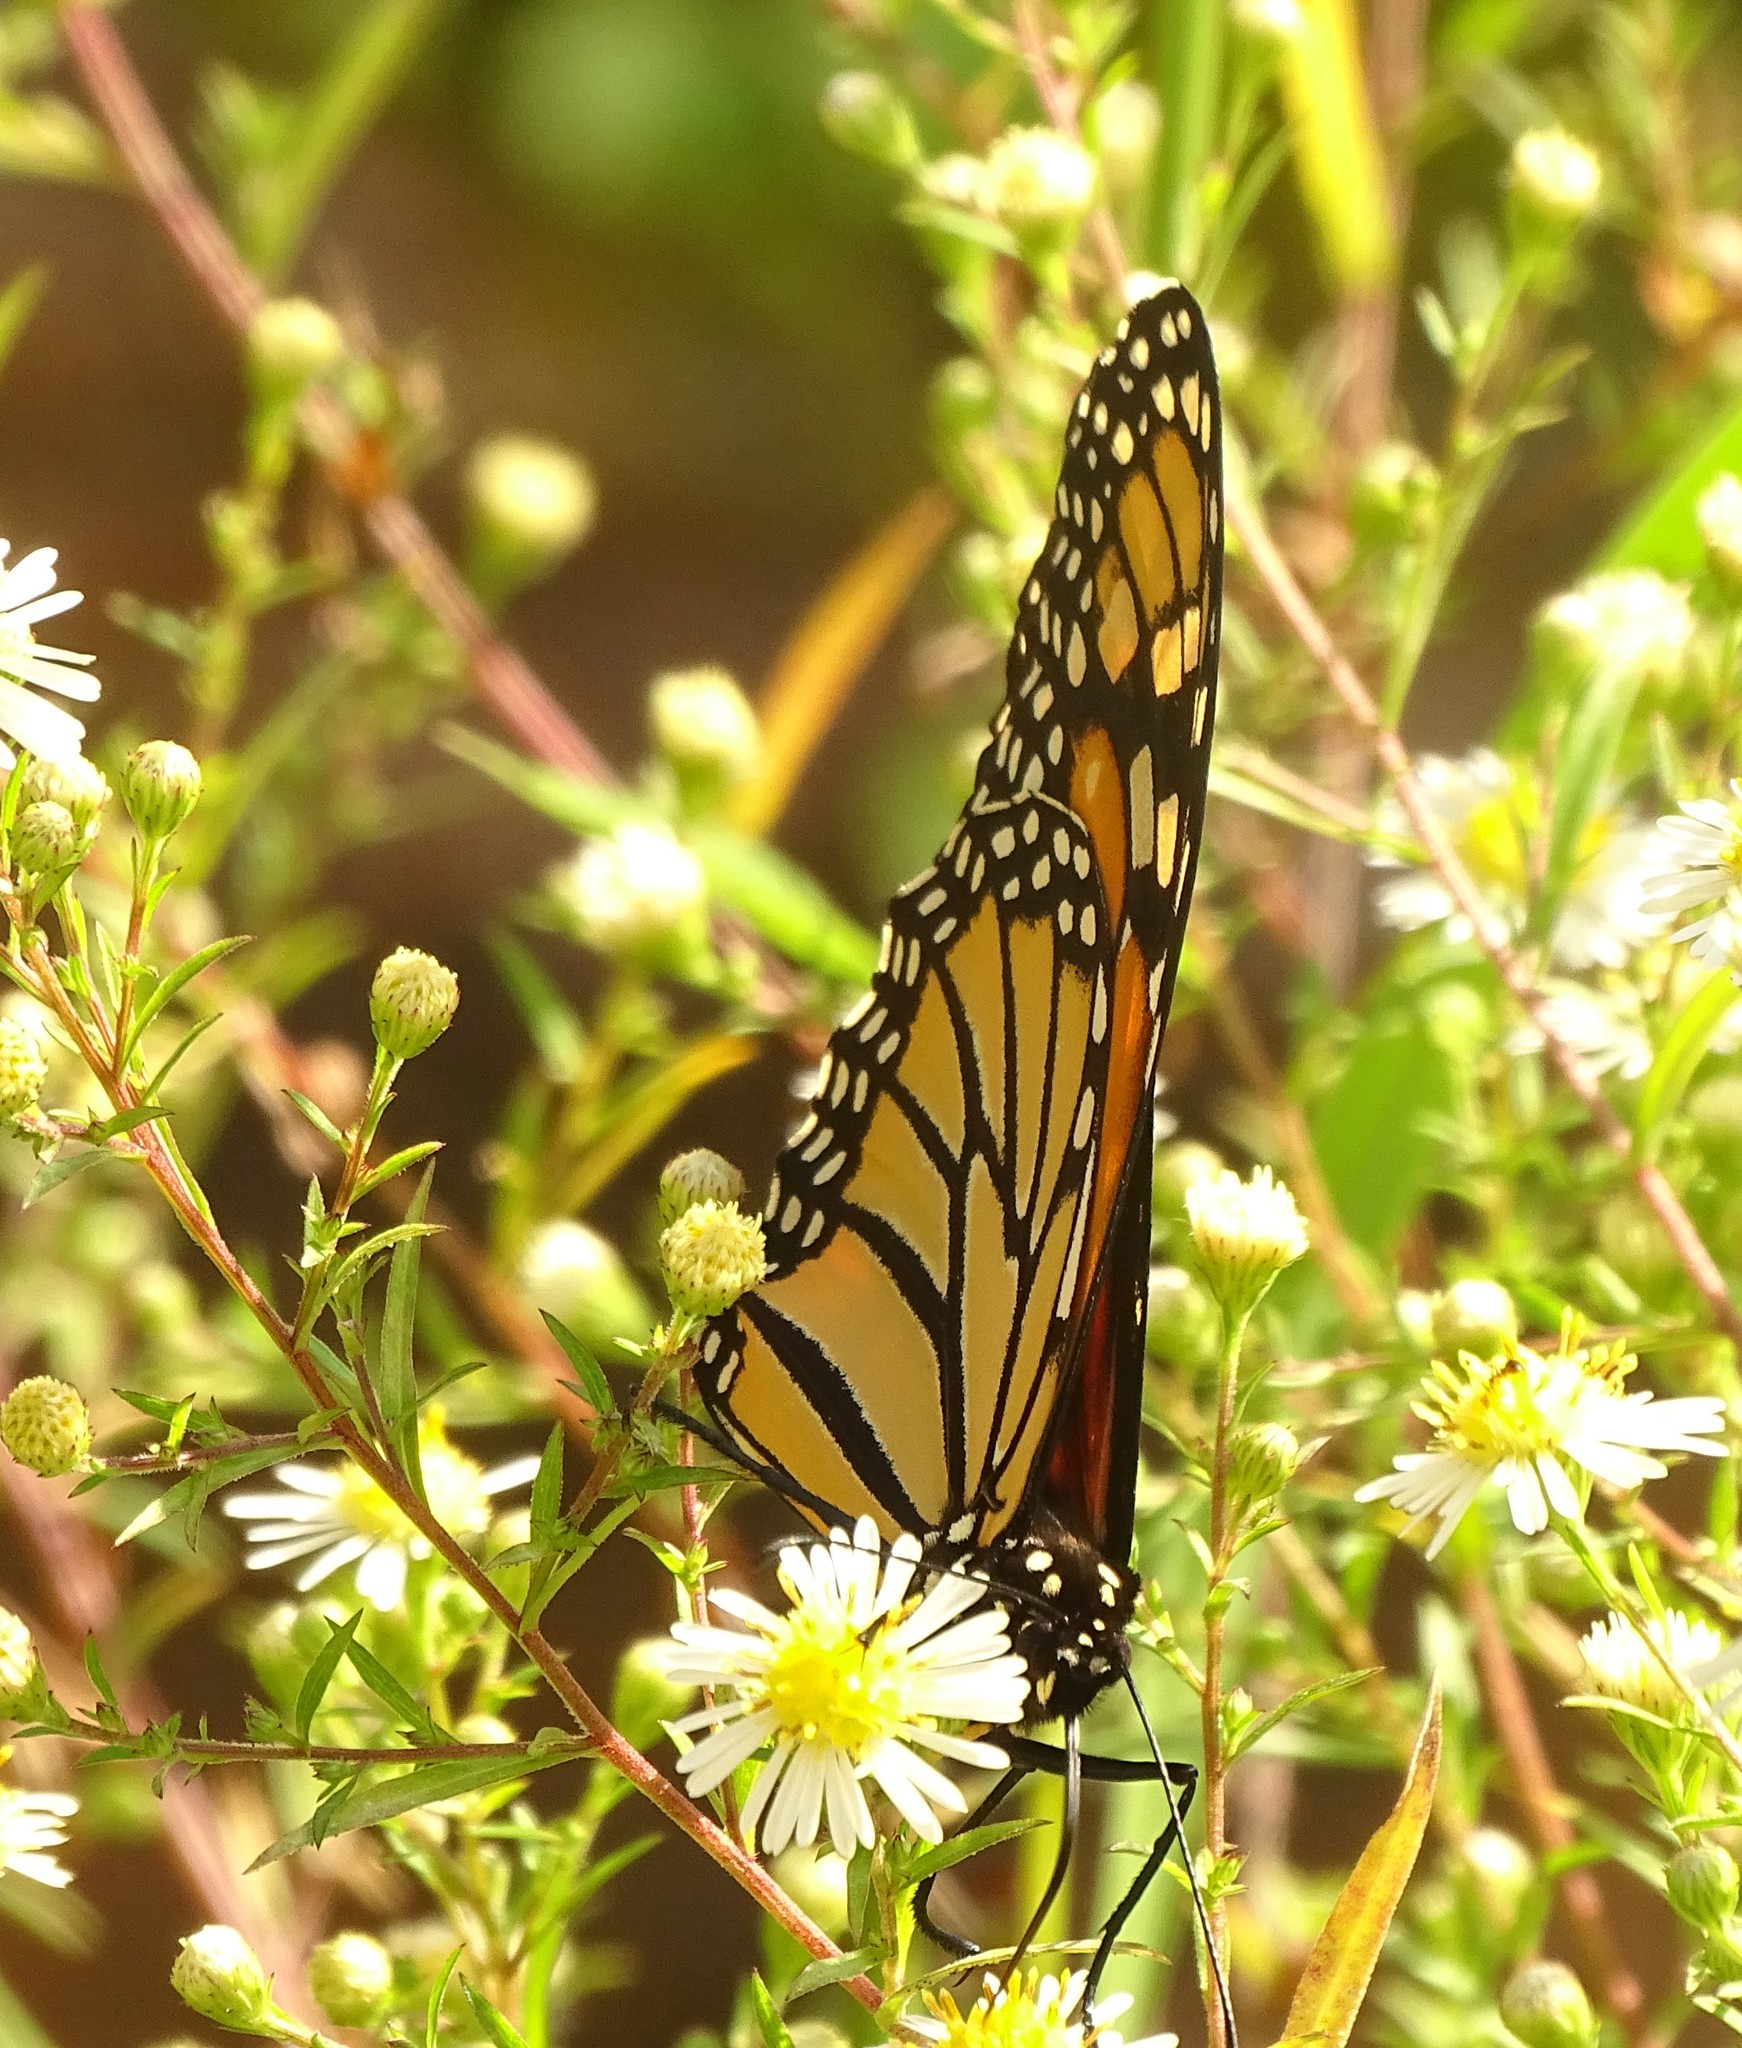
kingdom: Animalia
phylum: Arthropoda
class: Insecta
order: Lepidoptera
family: Nymphalidae
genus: Danaus
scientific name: Danaus plexippus
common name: Monarch
